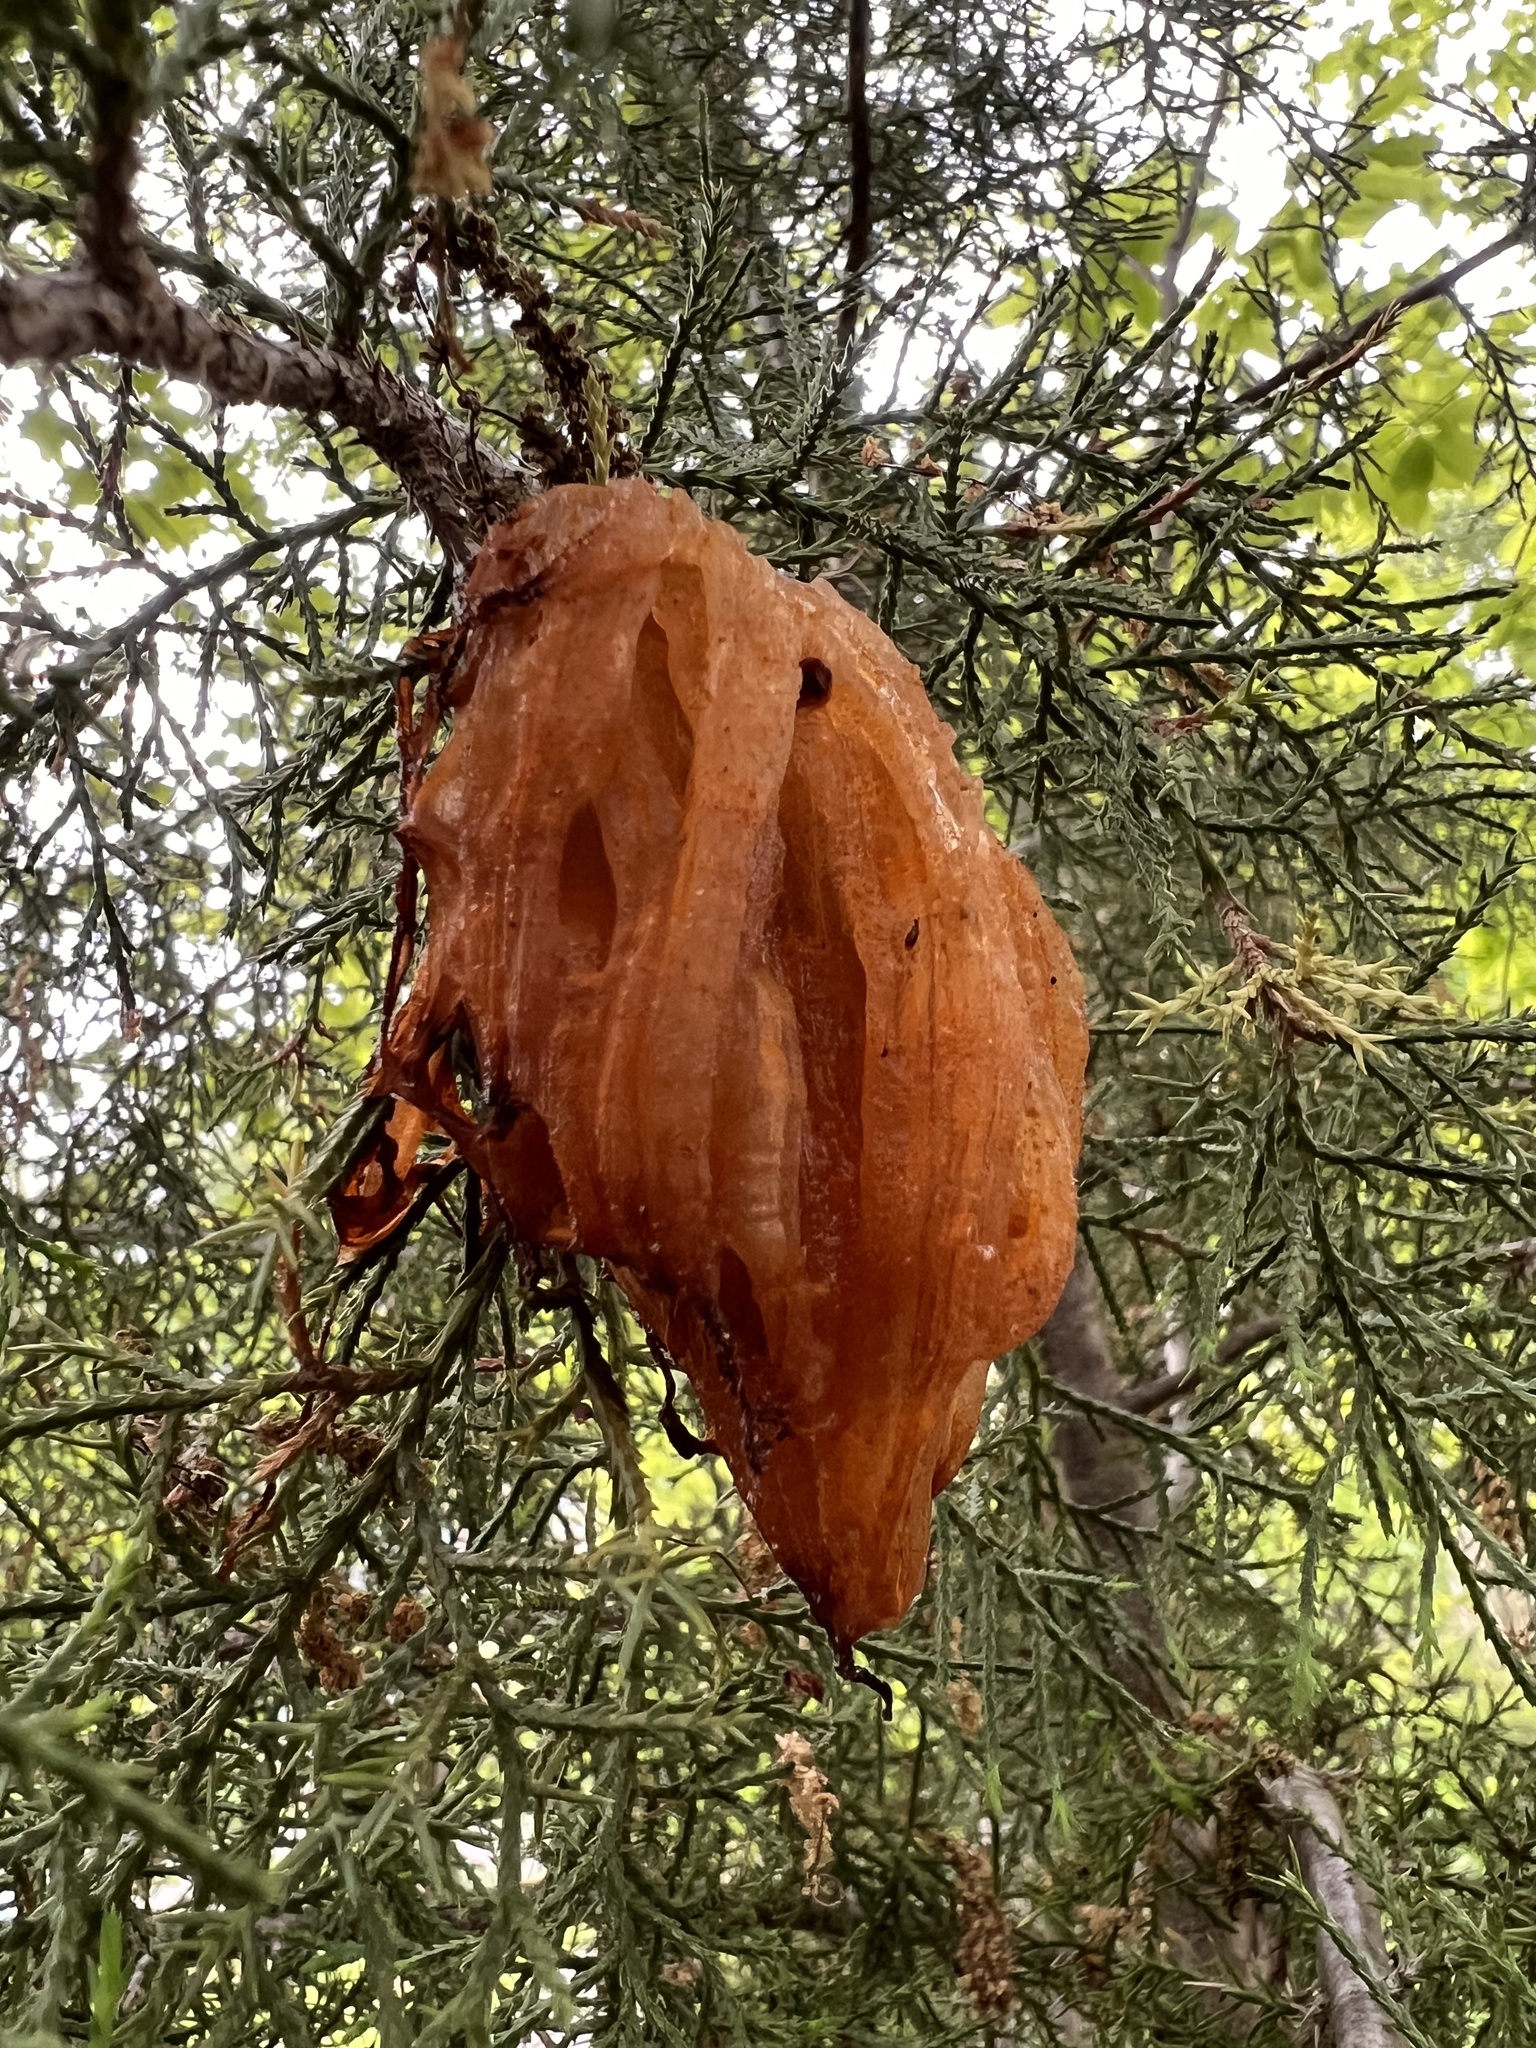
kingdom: Fungi
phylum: Basidiomycota
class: Pucciniomycetes
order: Pucciniales
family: Gymnosporangiaceae
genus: Gymnosporangium
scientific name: Gymnosporangium juniperi-virginianae
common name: Juniper-apple rust
